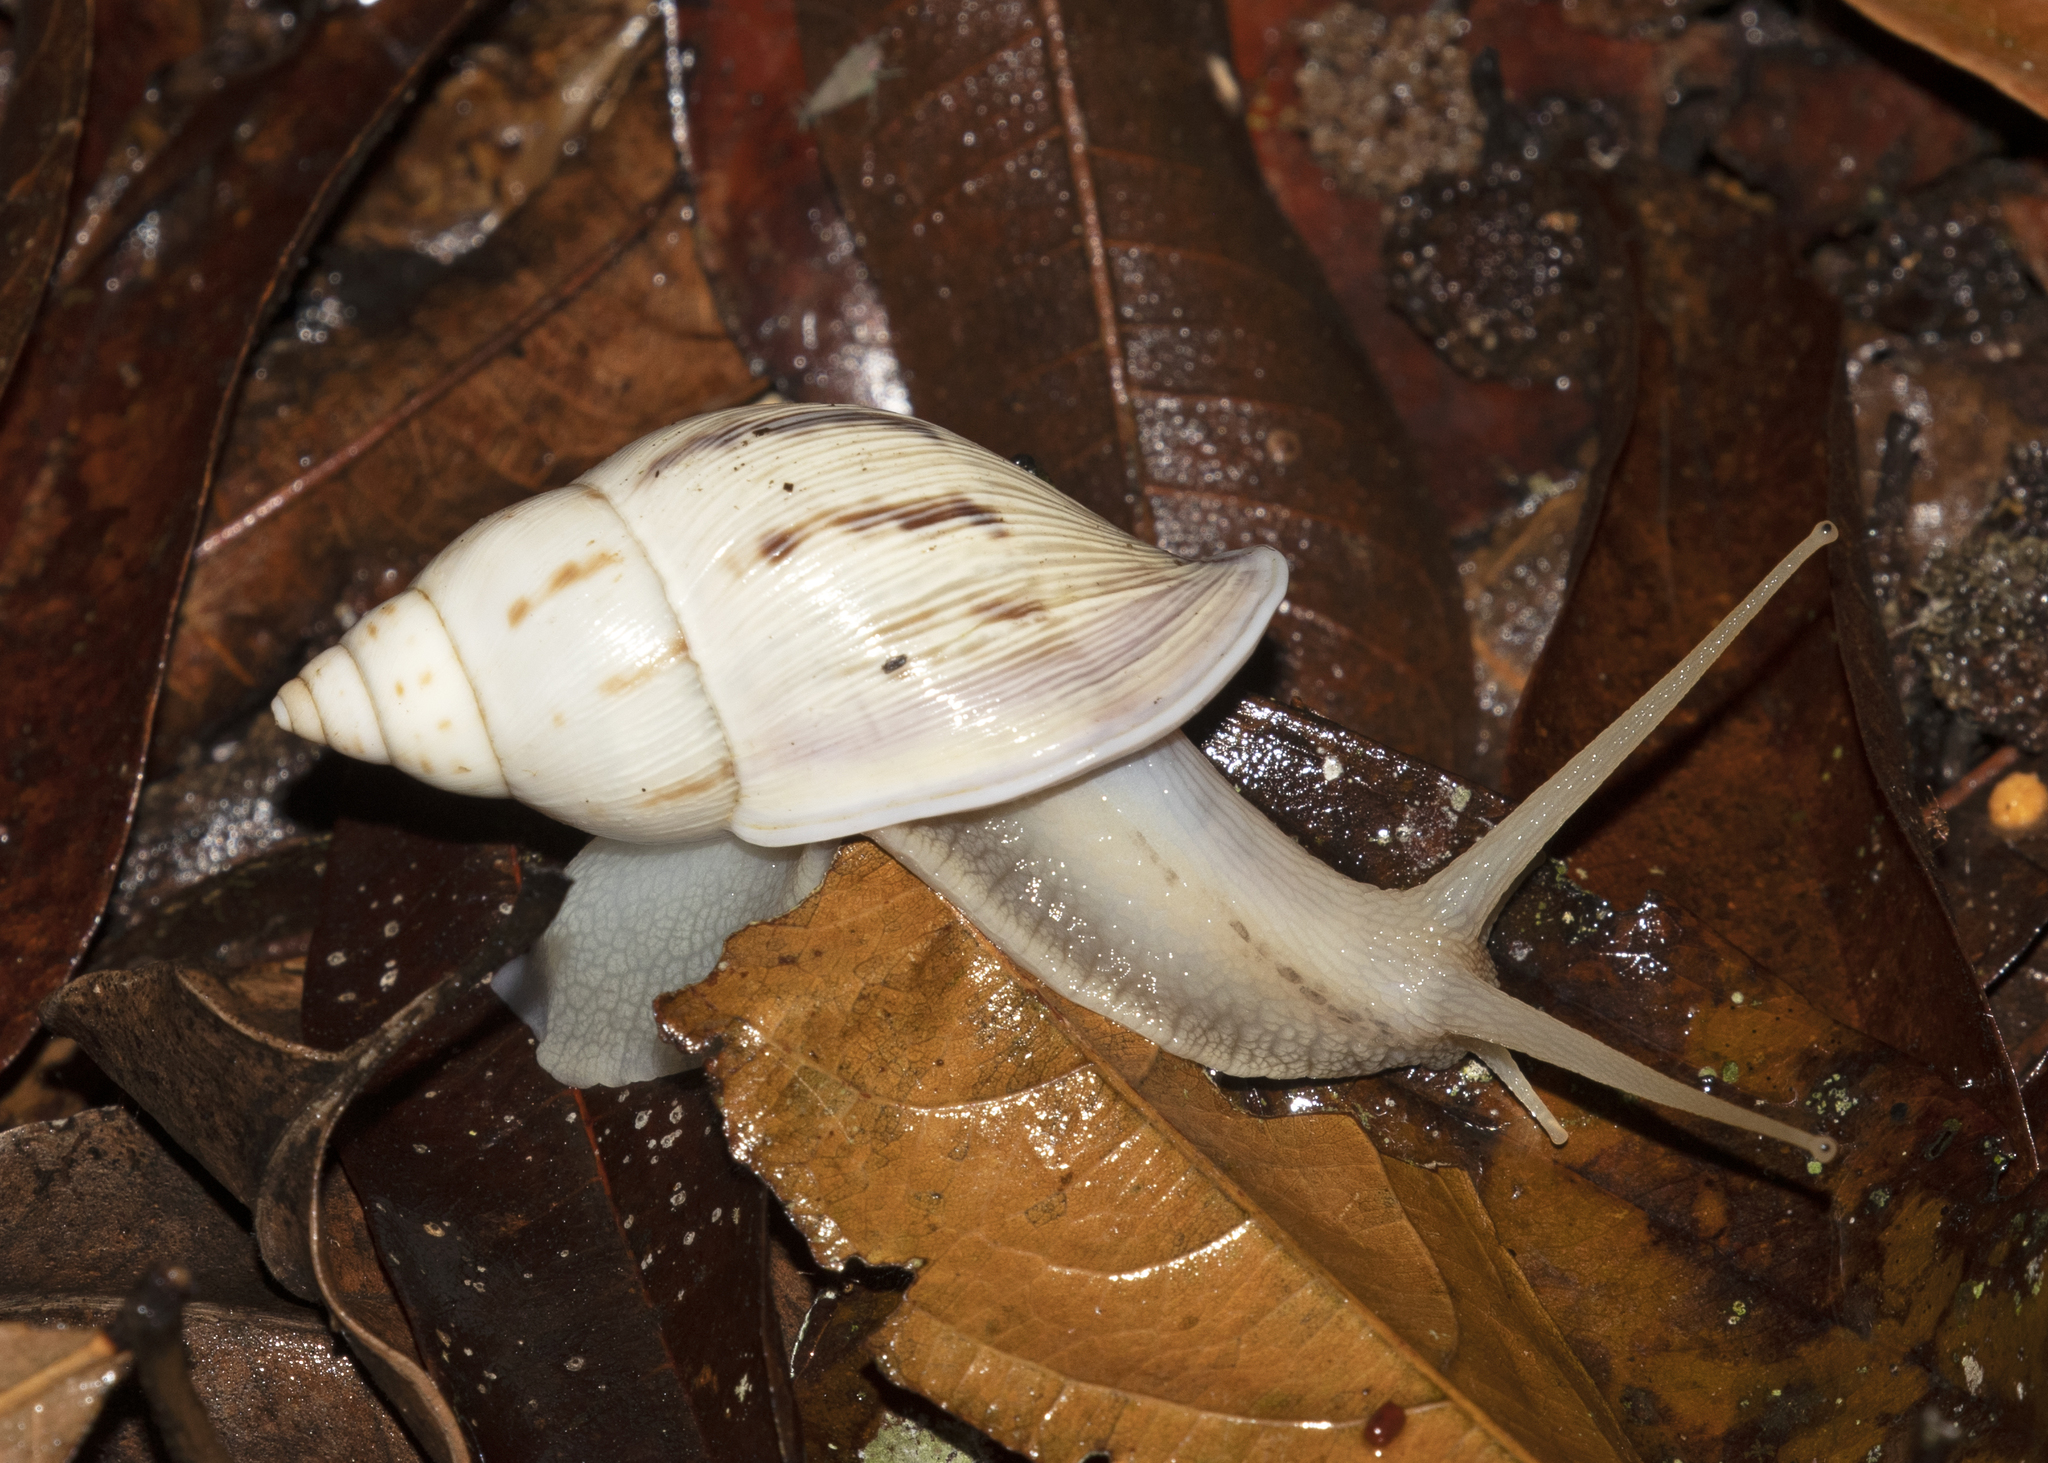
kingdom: Animalia
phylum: Mollusca
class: Gastropoda
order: Stylommatophora
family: Bulimulidae
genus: Drymaeus
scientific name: Drymaeus expansus
